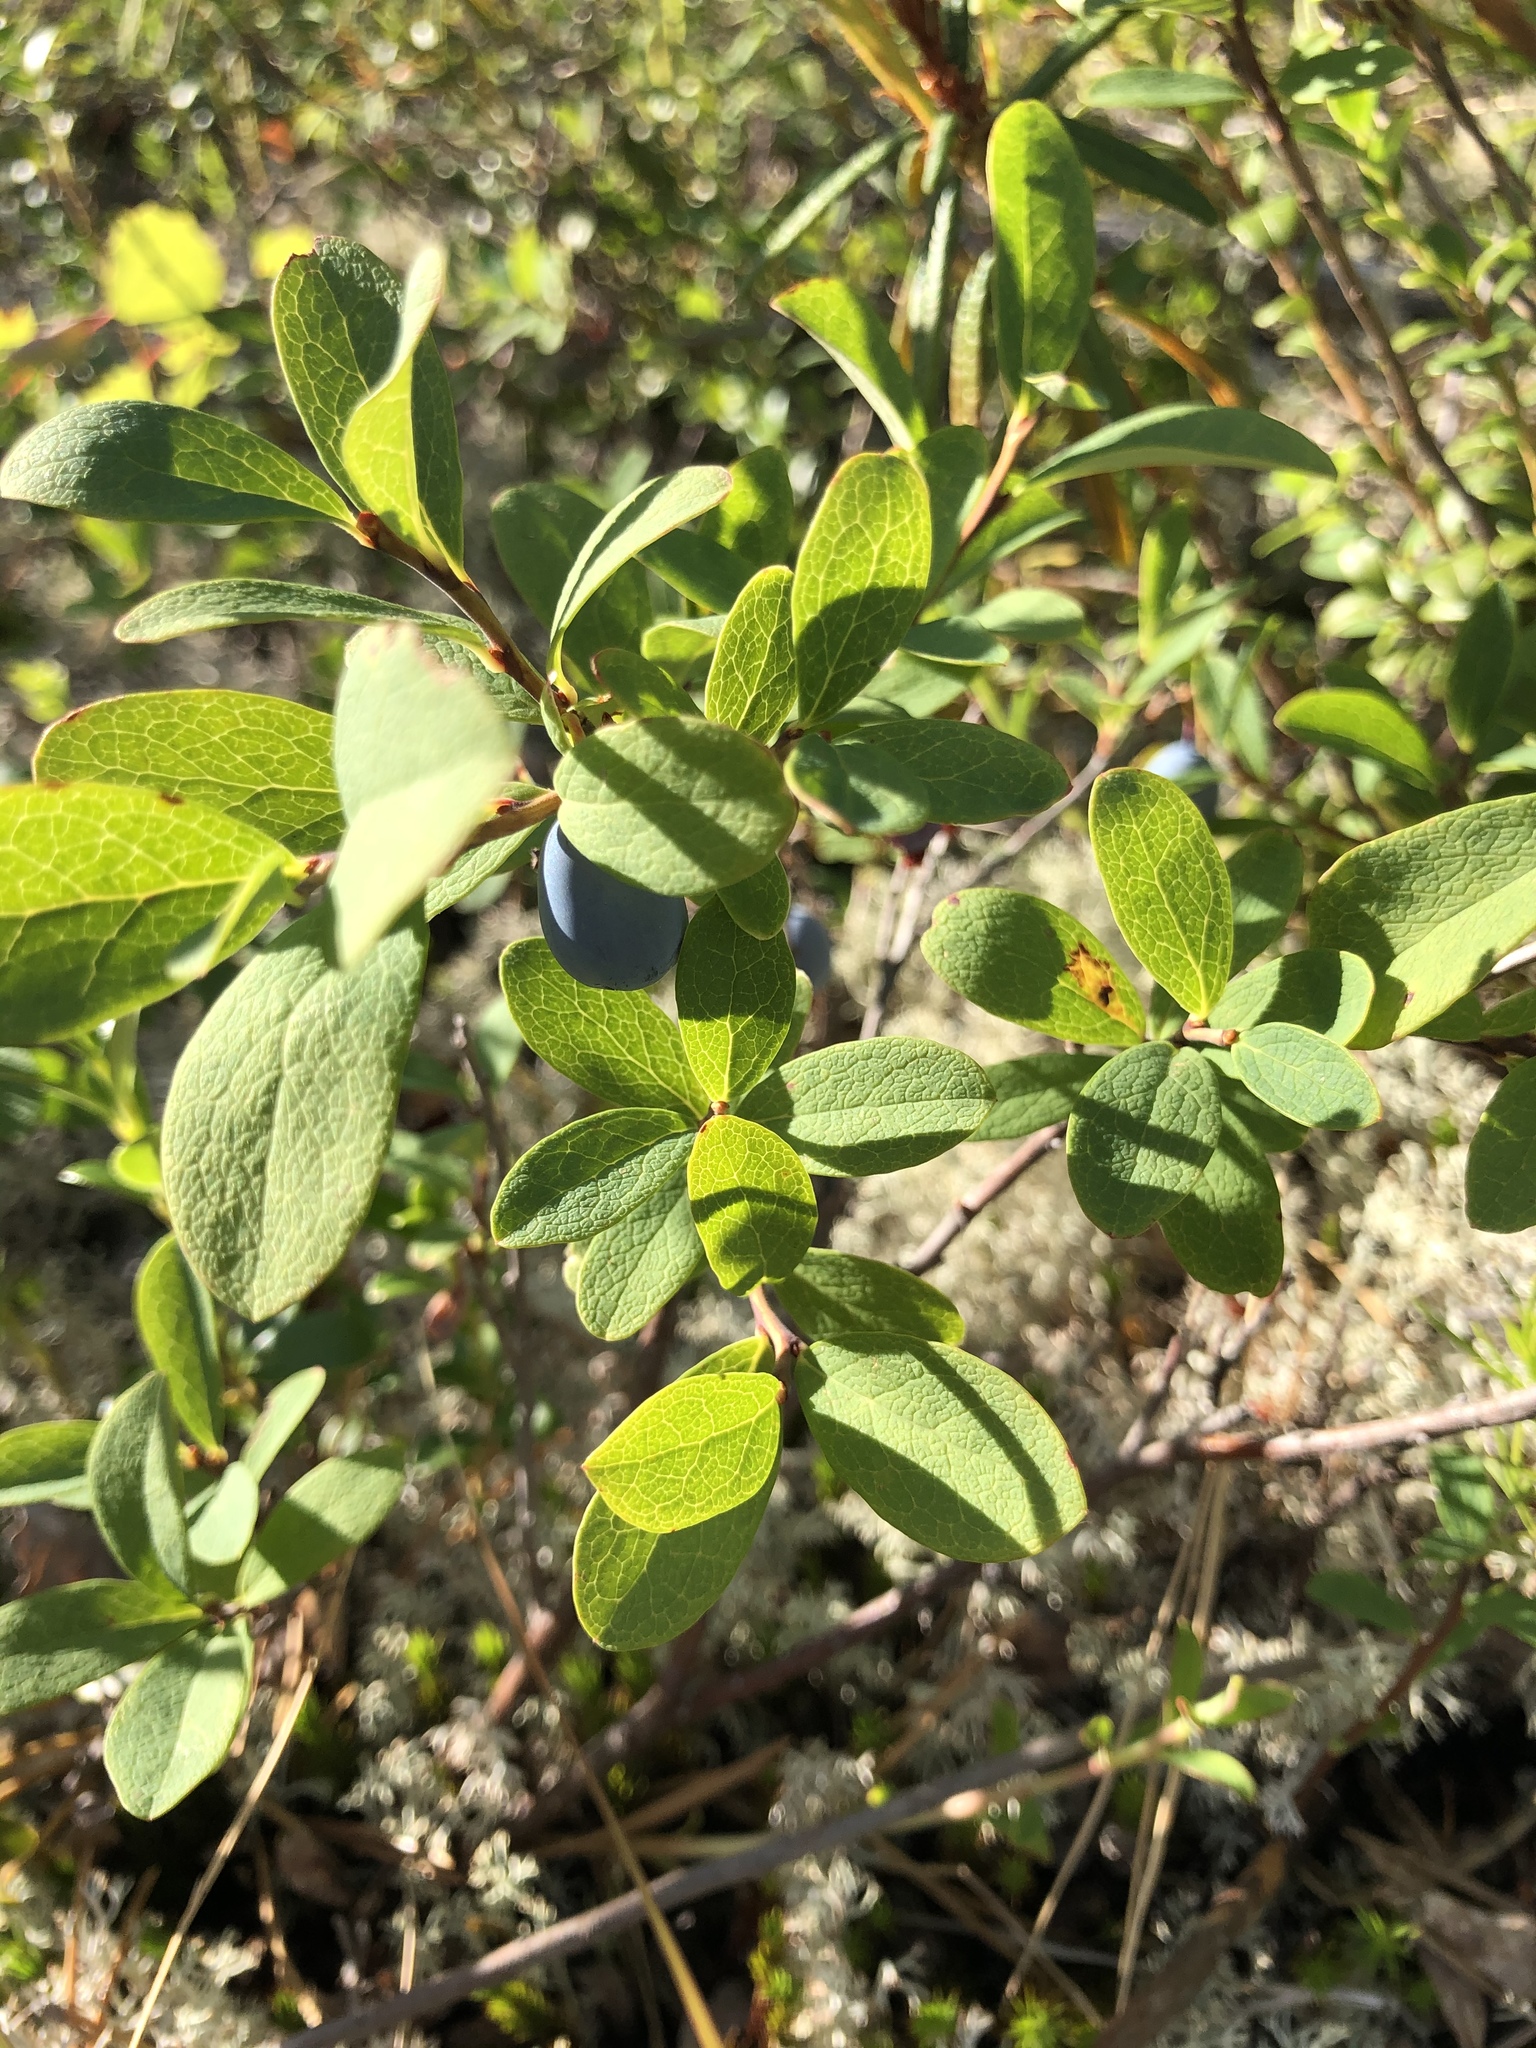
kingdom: Plantae
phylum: Tracheophyta
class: Magnoliopsida
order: Ericales
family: Ericaceae
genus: Vaccinium
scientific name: Vaccinium uliginosum
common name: Bog bilberry
